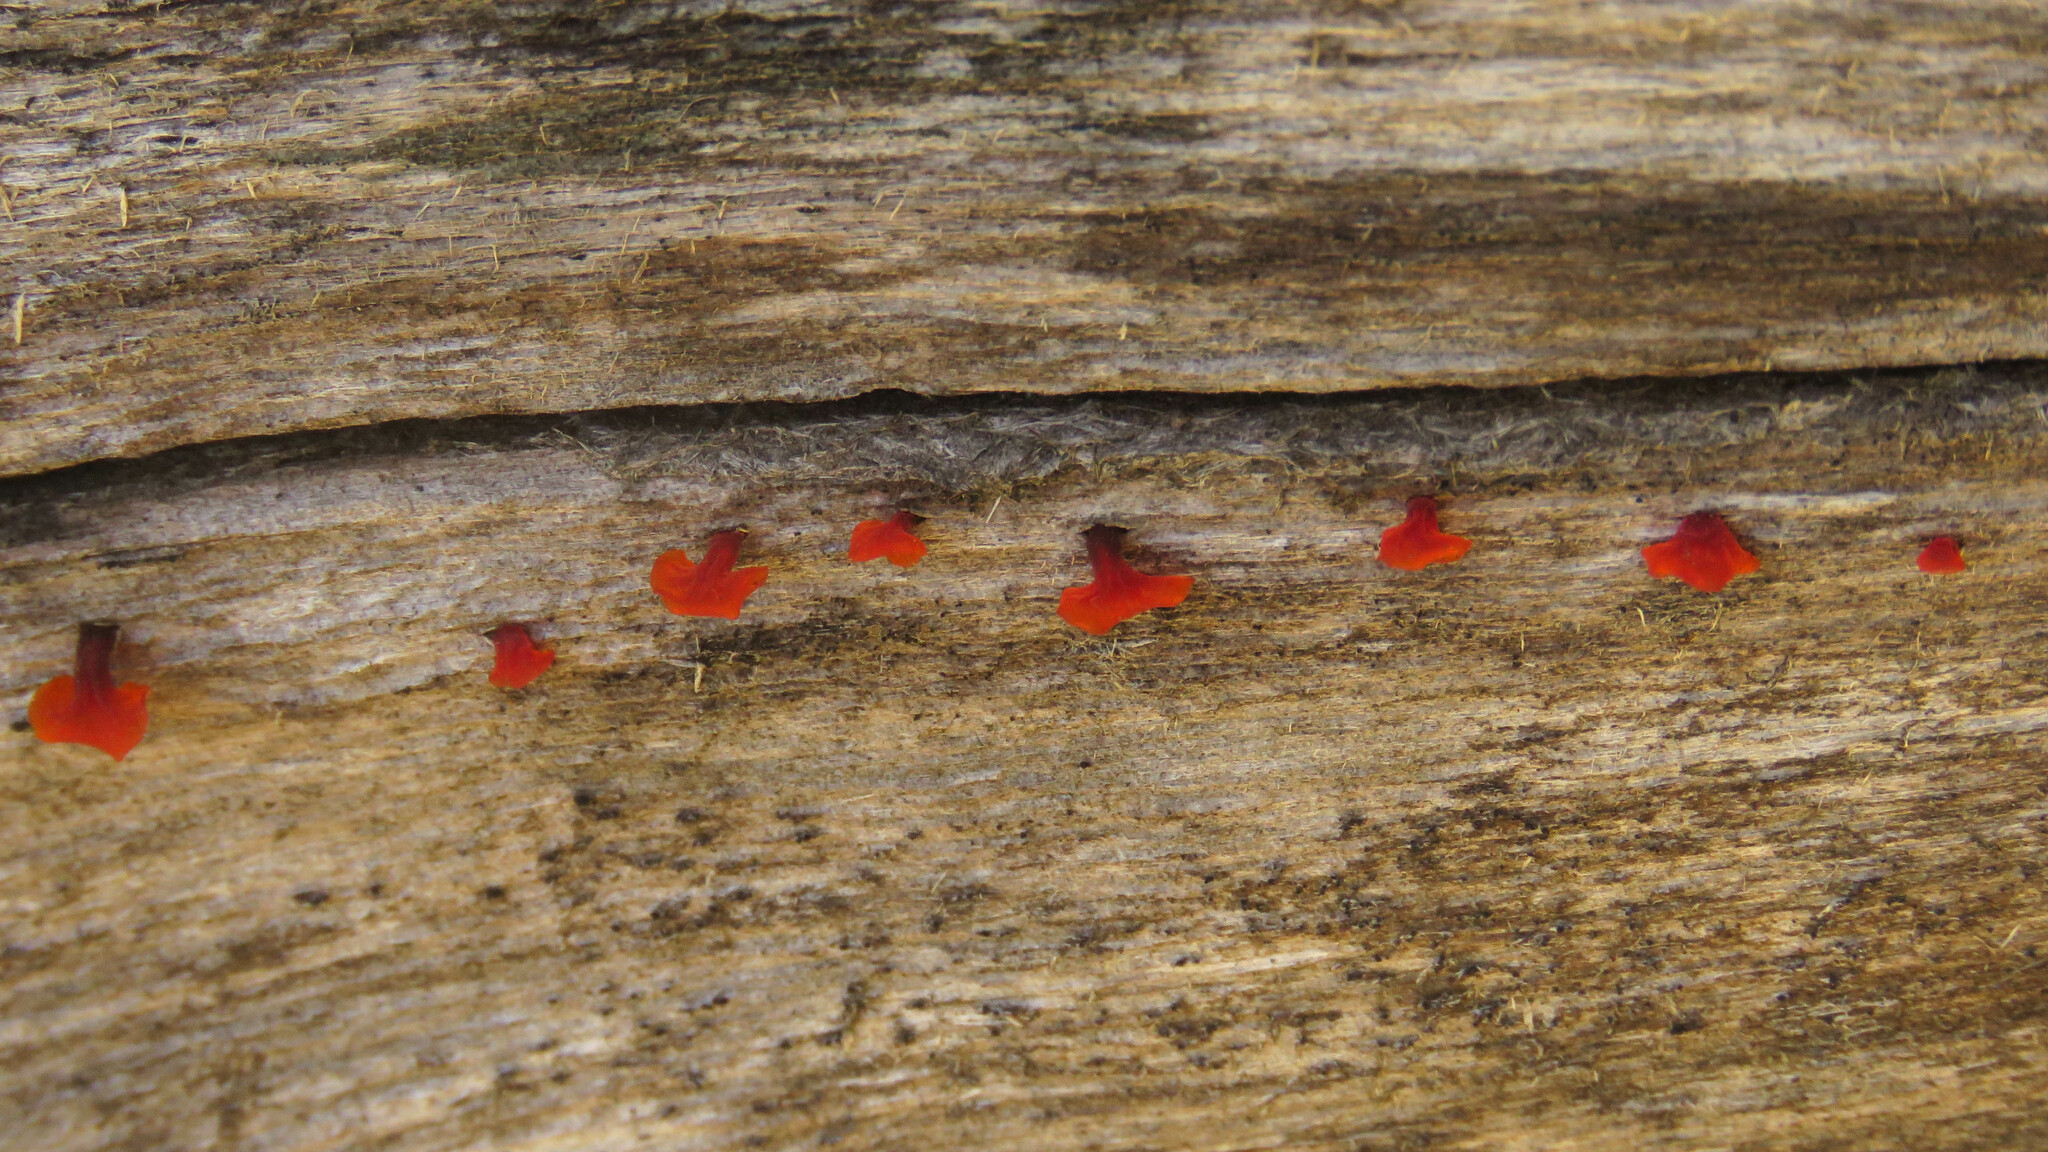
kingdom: Fungi
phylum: Basidiomycota
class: Dacrymycetes
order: Dacrymycetales
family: Dacrymycetaceae
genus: Guepiniopsis
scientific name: Guepiniopsis alpina
